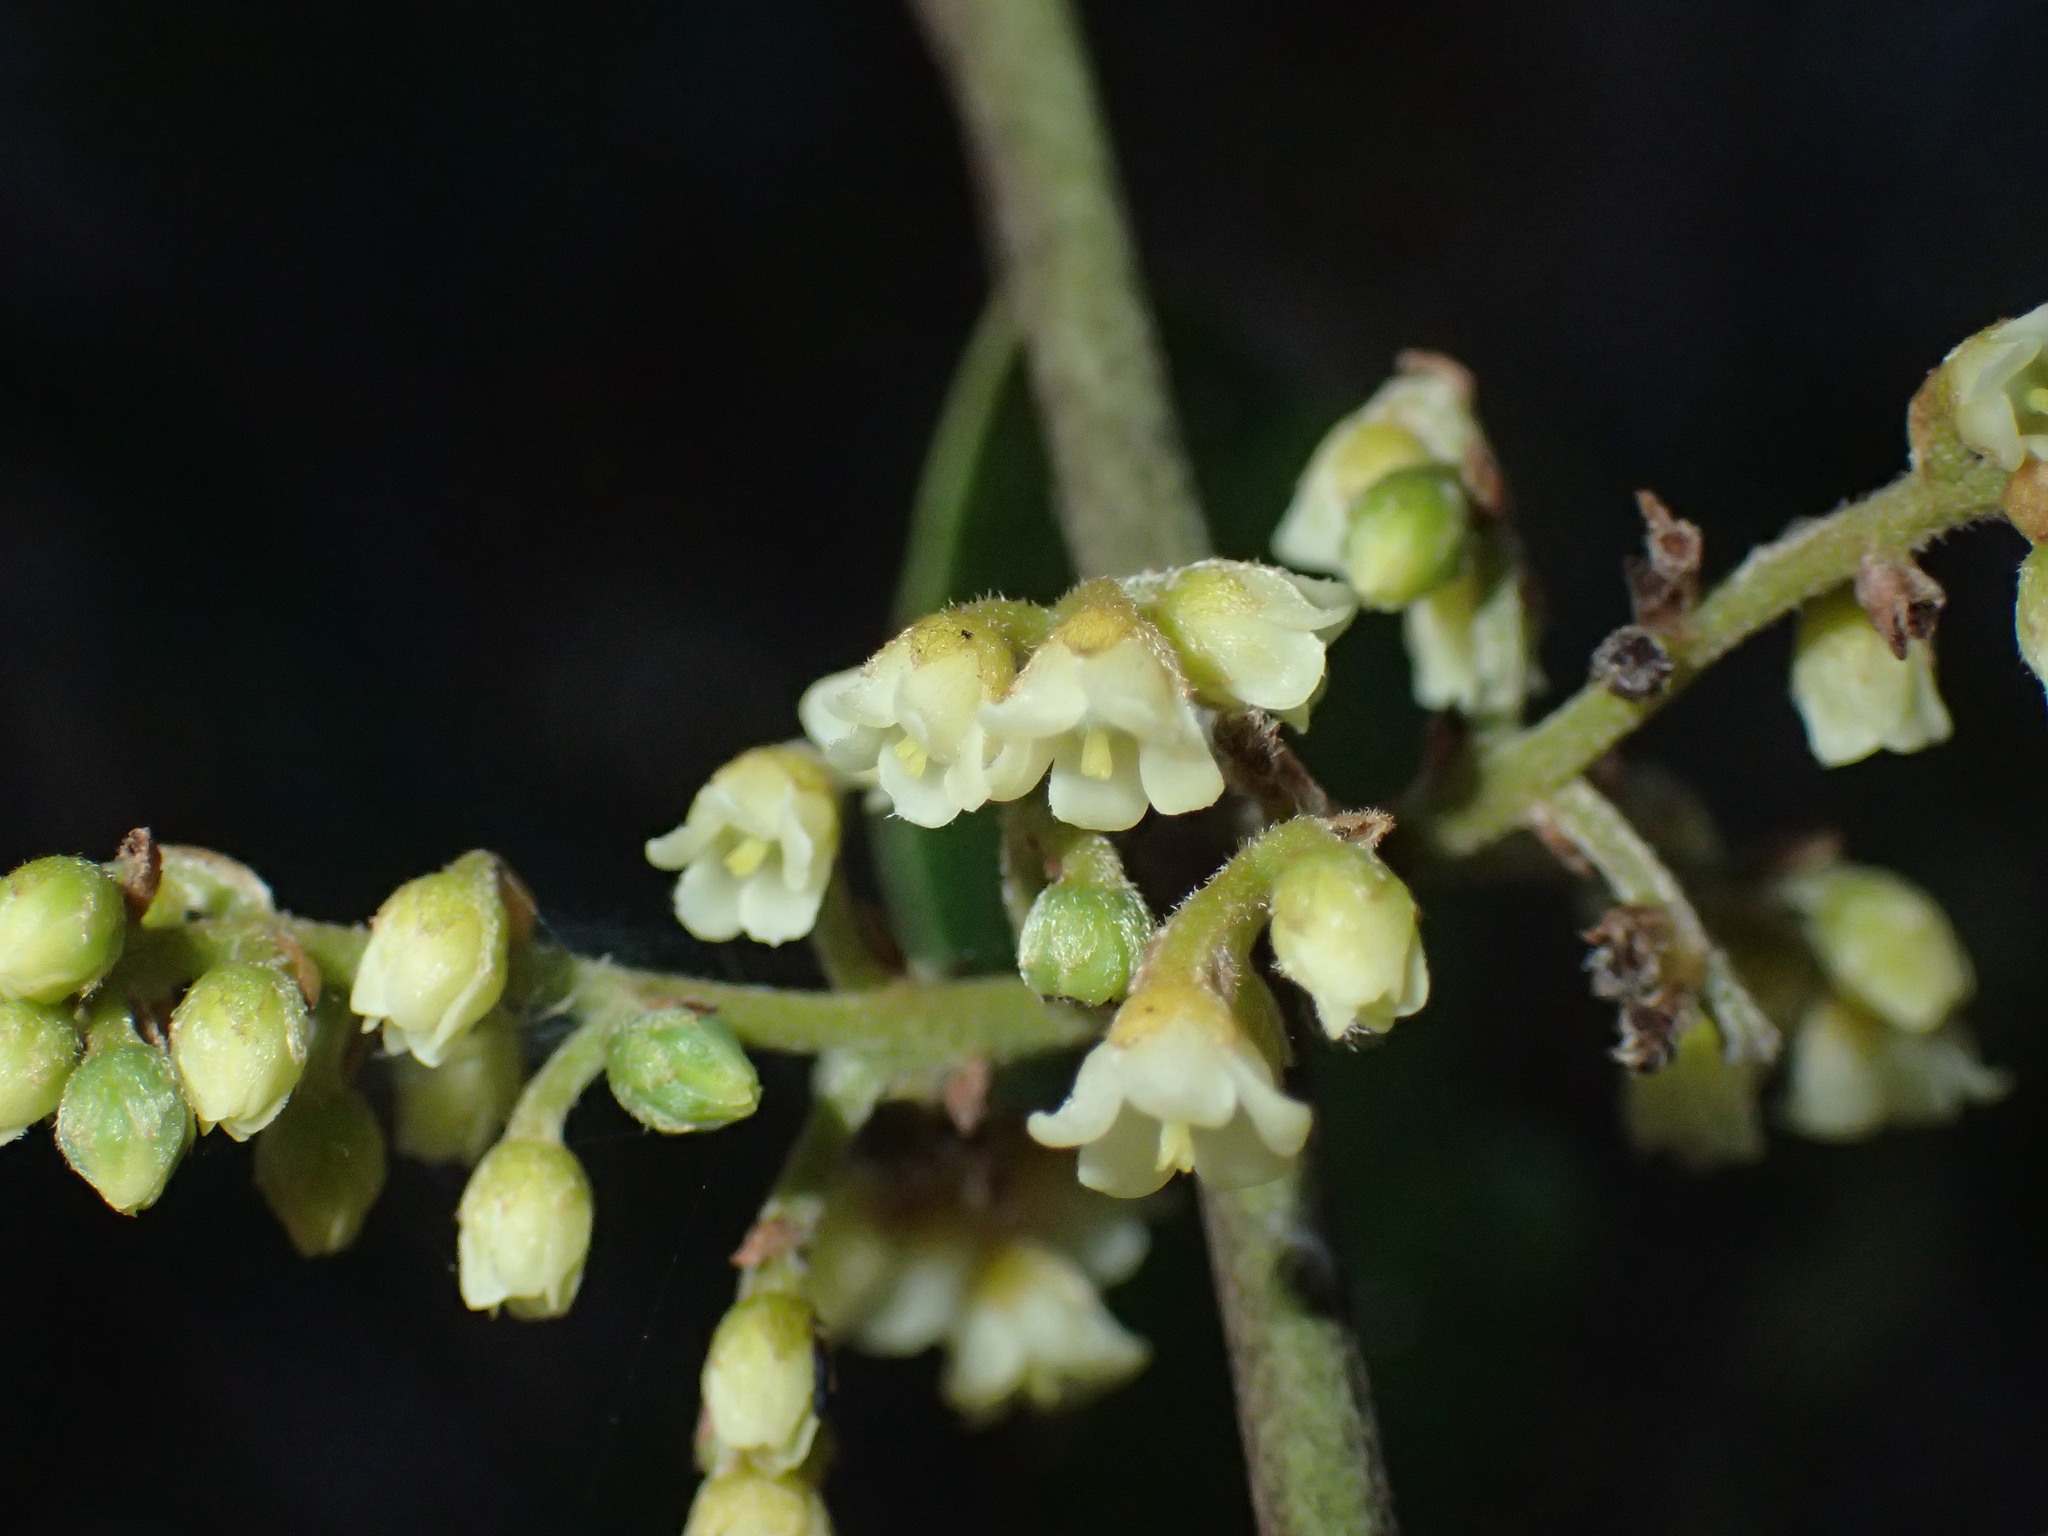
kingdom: Plantae
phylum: Tracheophyta
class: Magnoliopsida
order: Ericales
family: Ebenaceae
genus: Euclea
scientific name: Euclea natalensis
